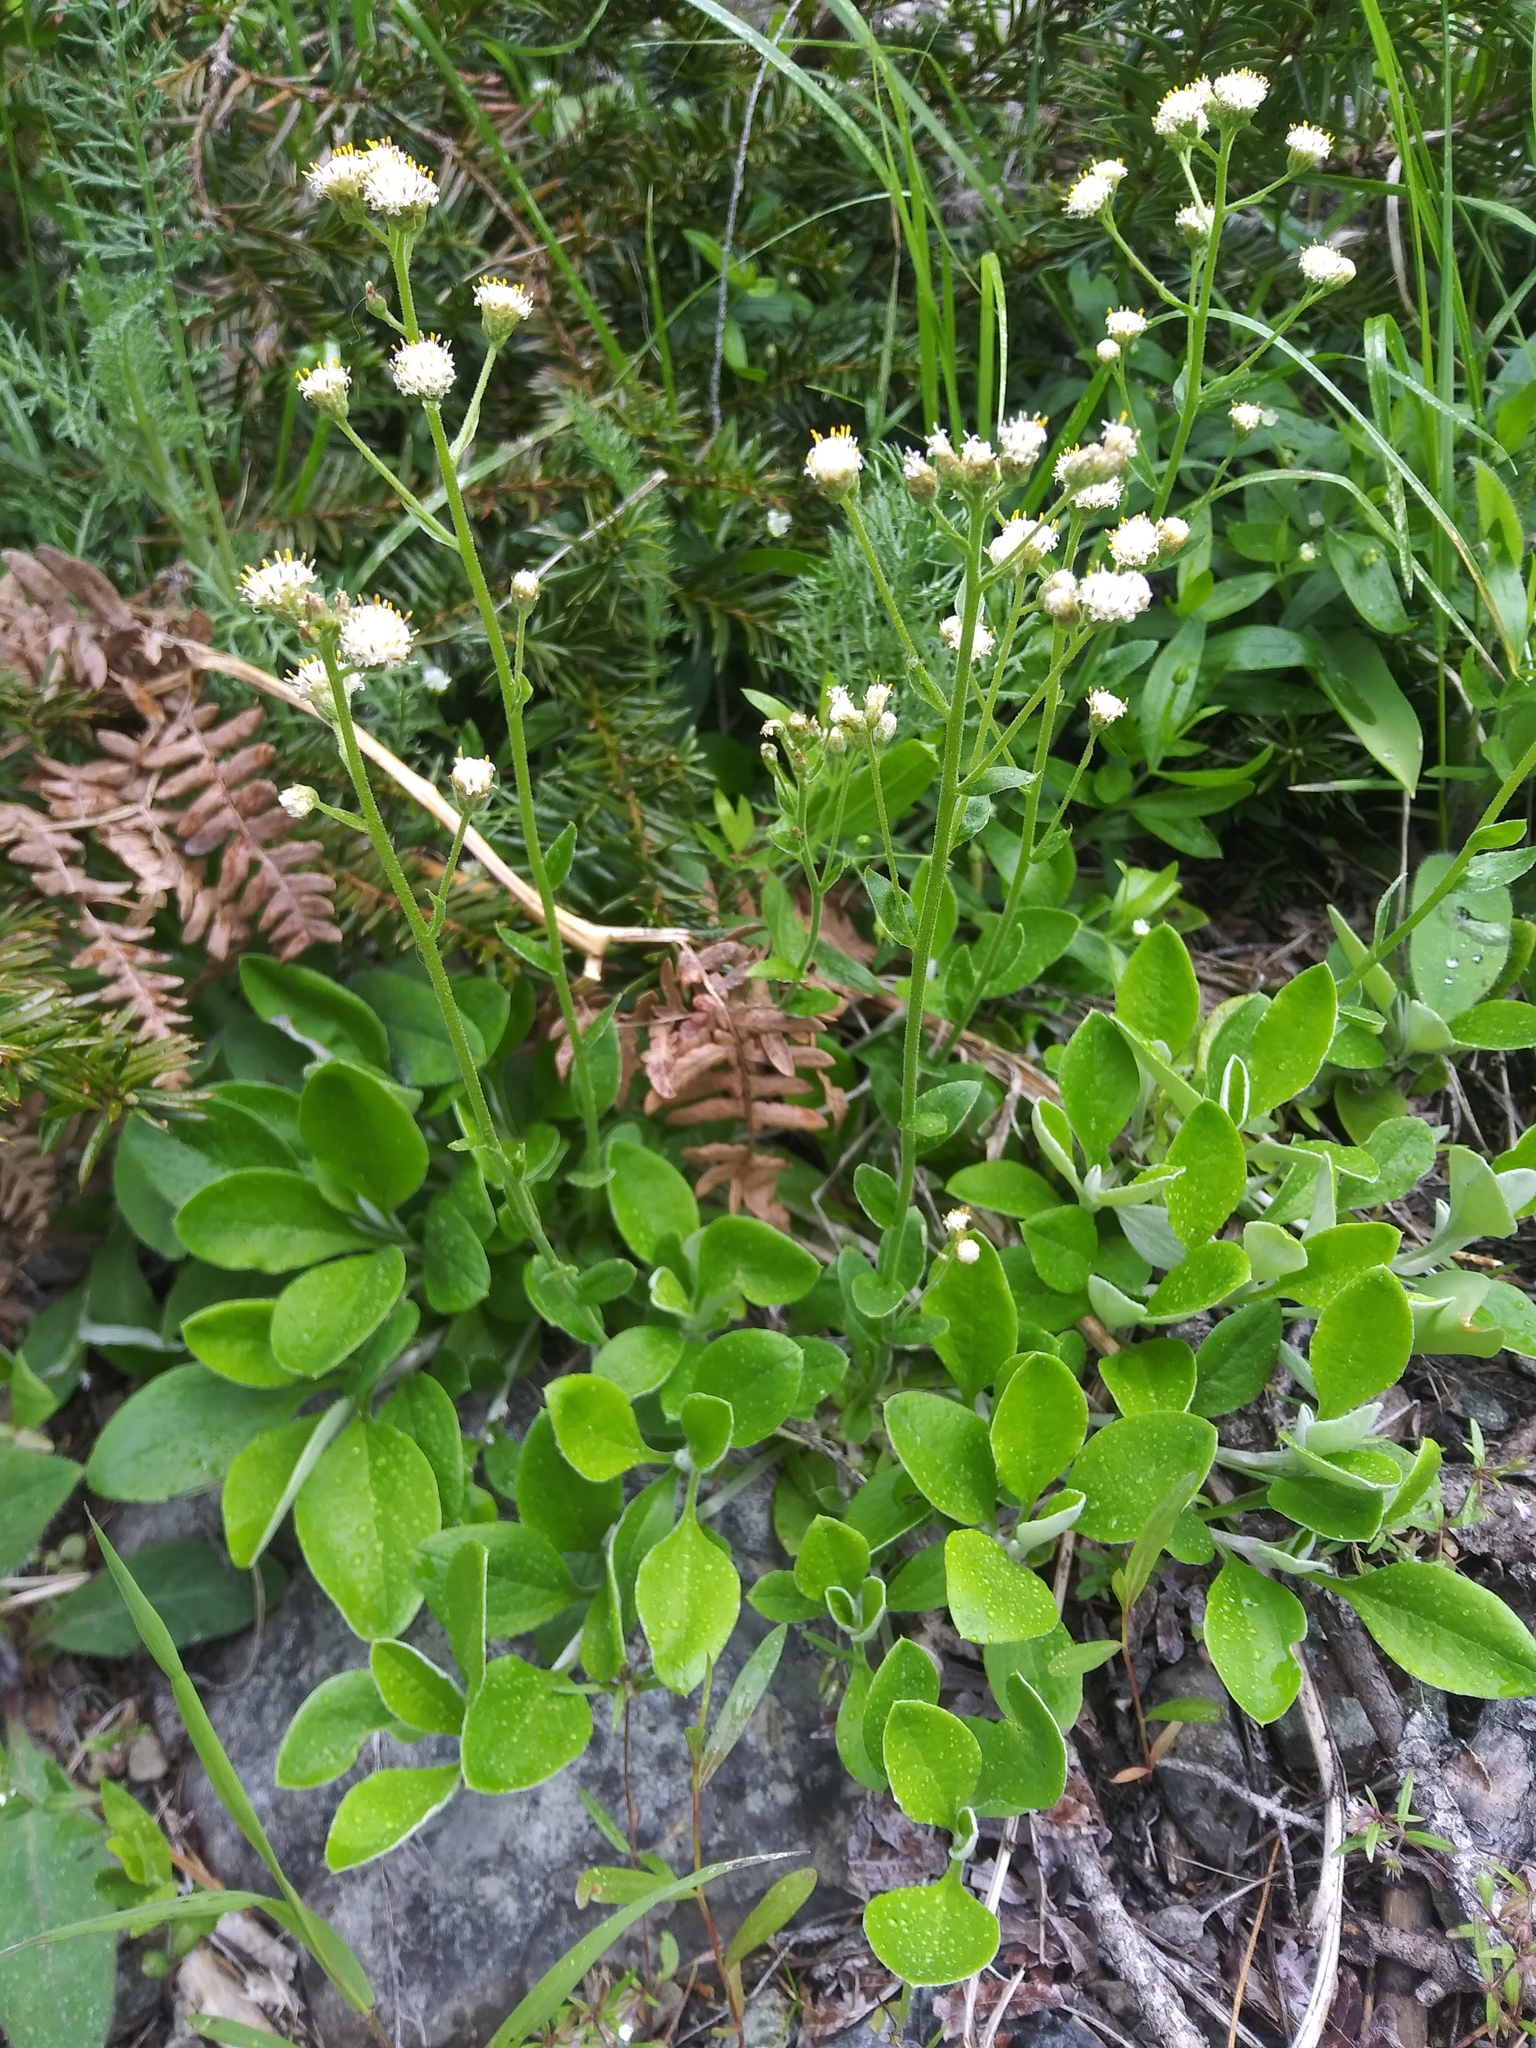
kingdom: Plantae
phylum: Tracheophyta
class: Magnoliopsida
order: Asterales
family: Asteraceae
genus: Antennaria
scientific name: Antennaria racemosa
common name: Racemose pussytoes
